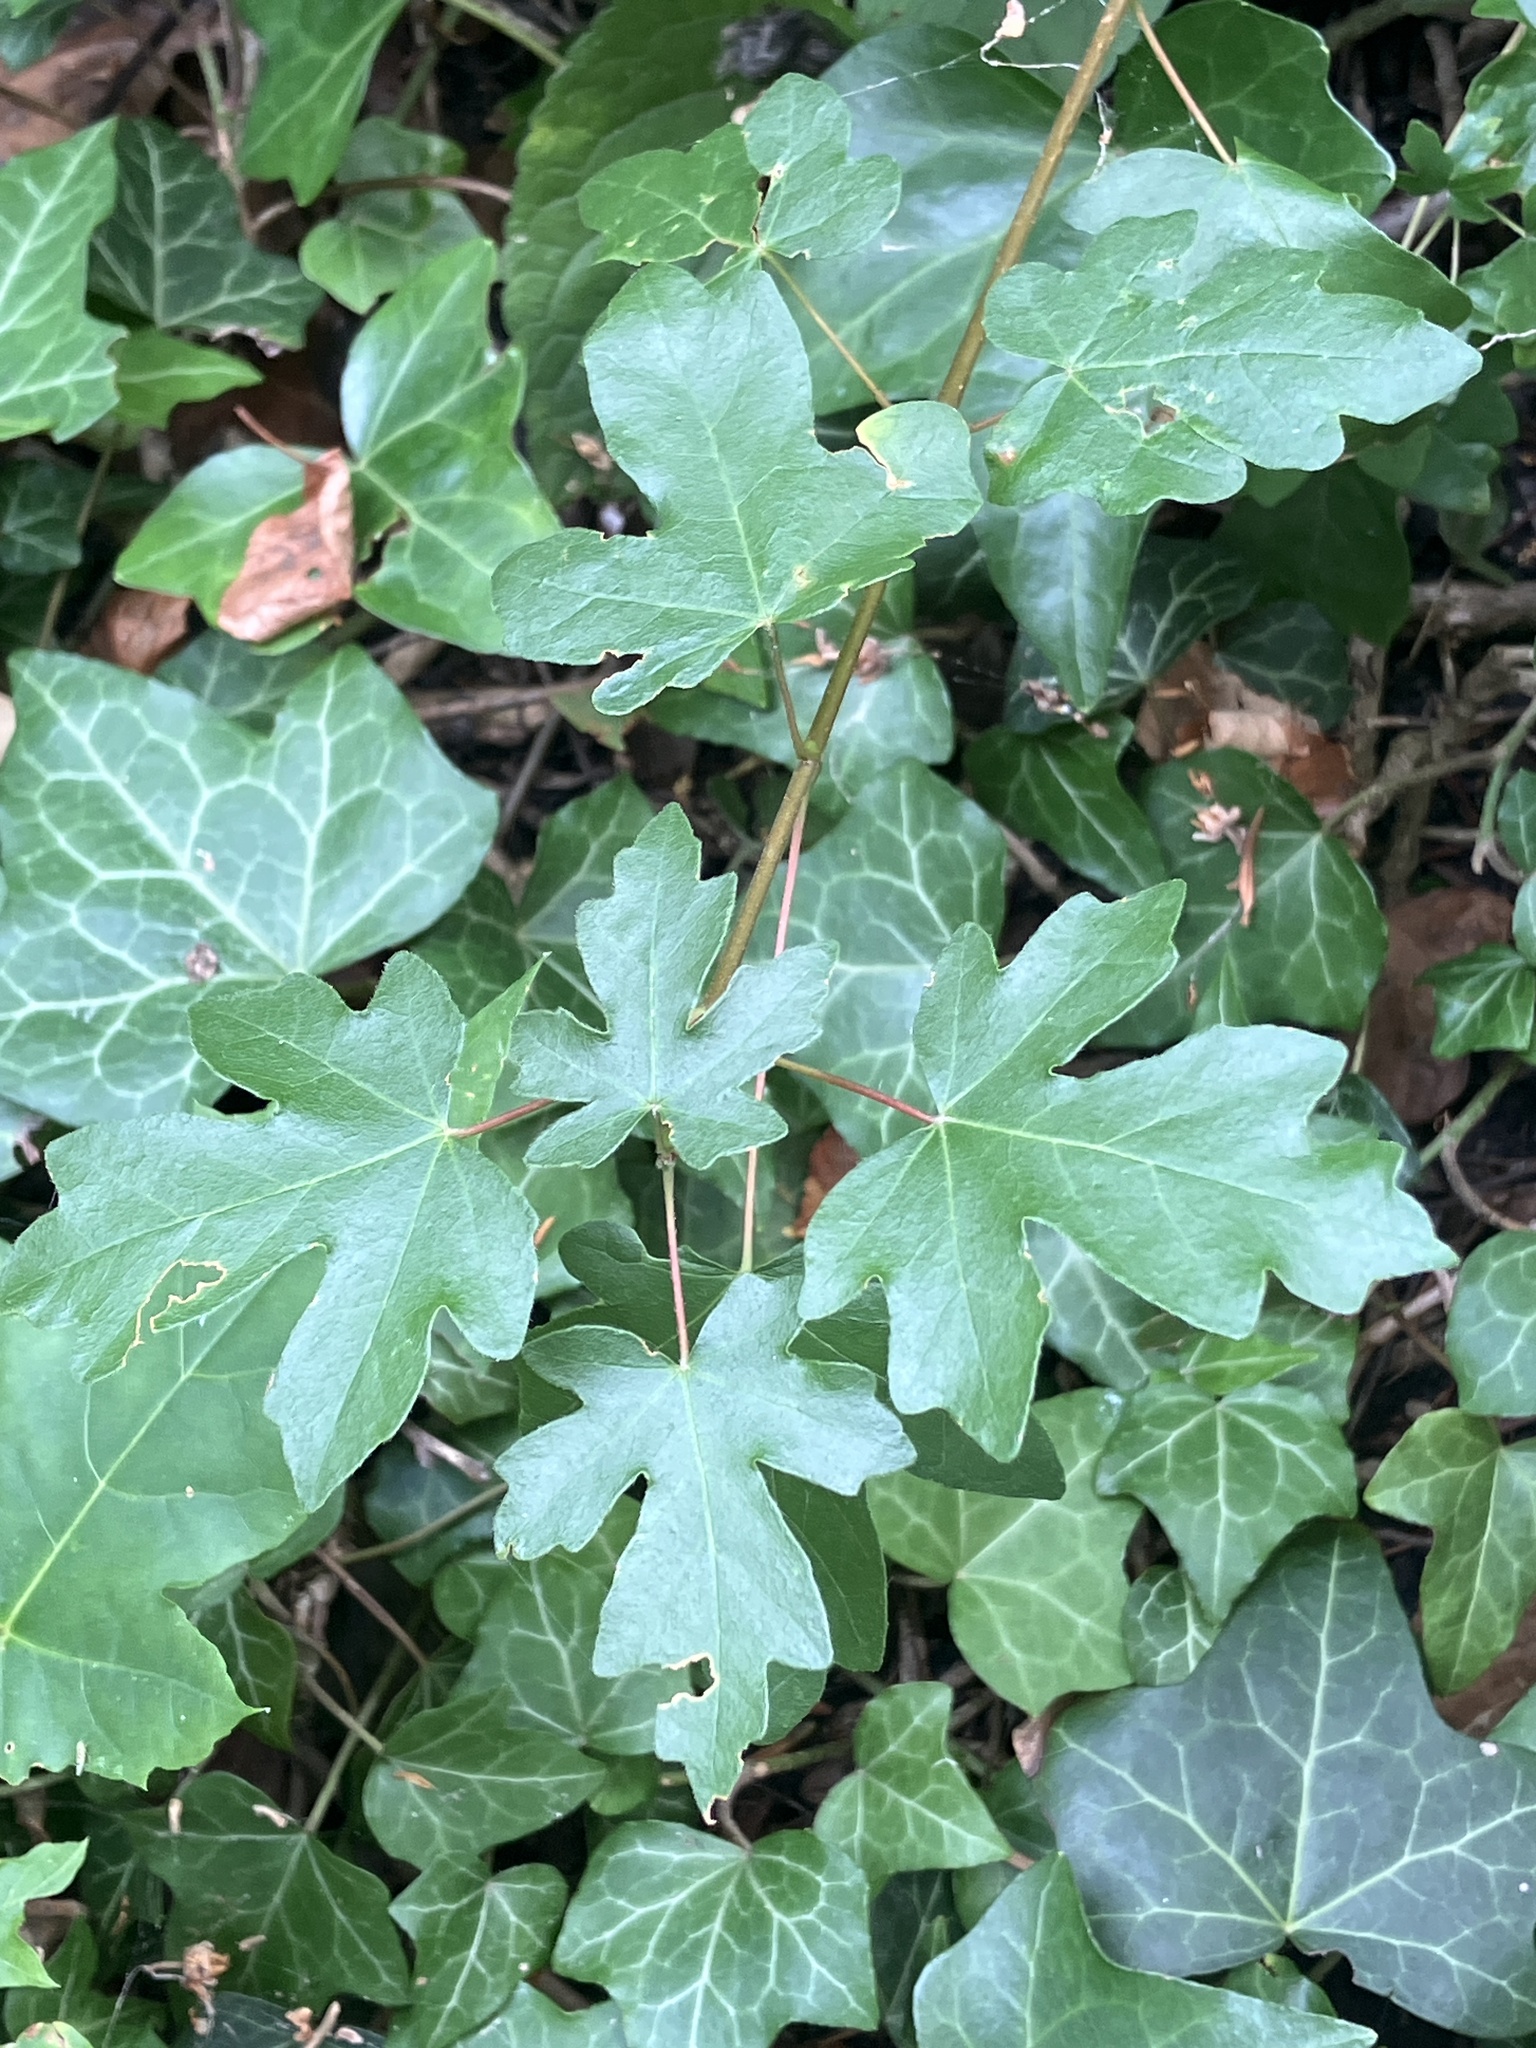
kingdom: Plantae
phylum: Tracheophyta
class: Magnoliopsida
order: Sapindales
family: Sapindaceae
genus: Acer
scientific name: Acer campestre
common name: Field maple
